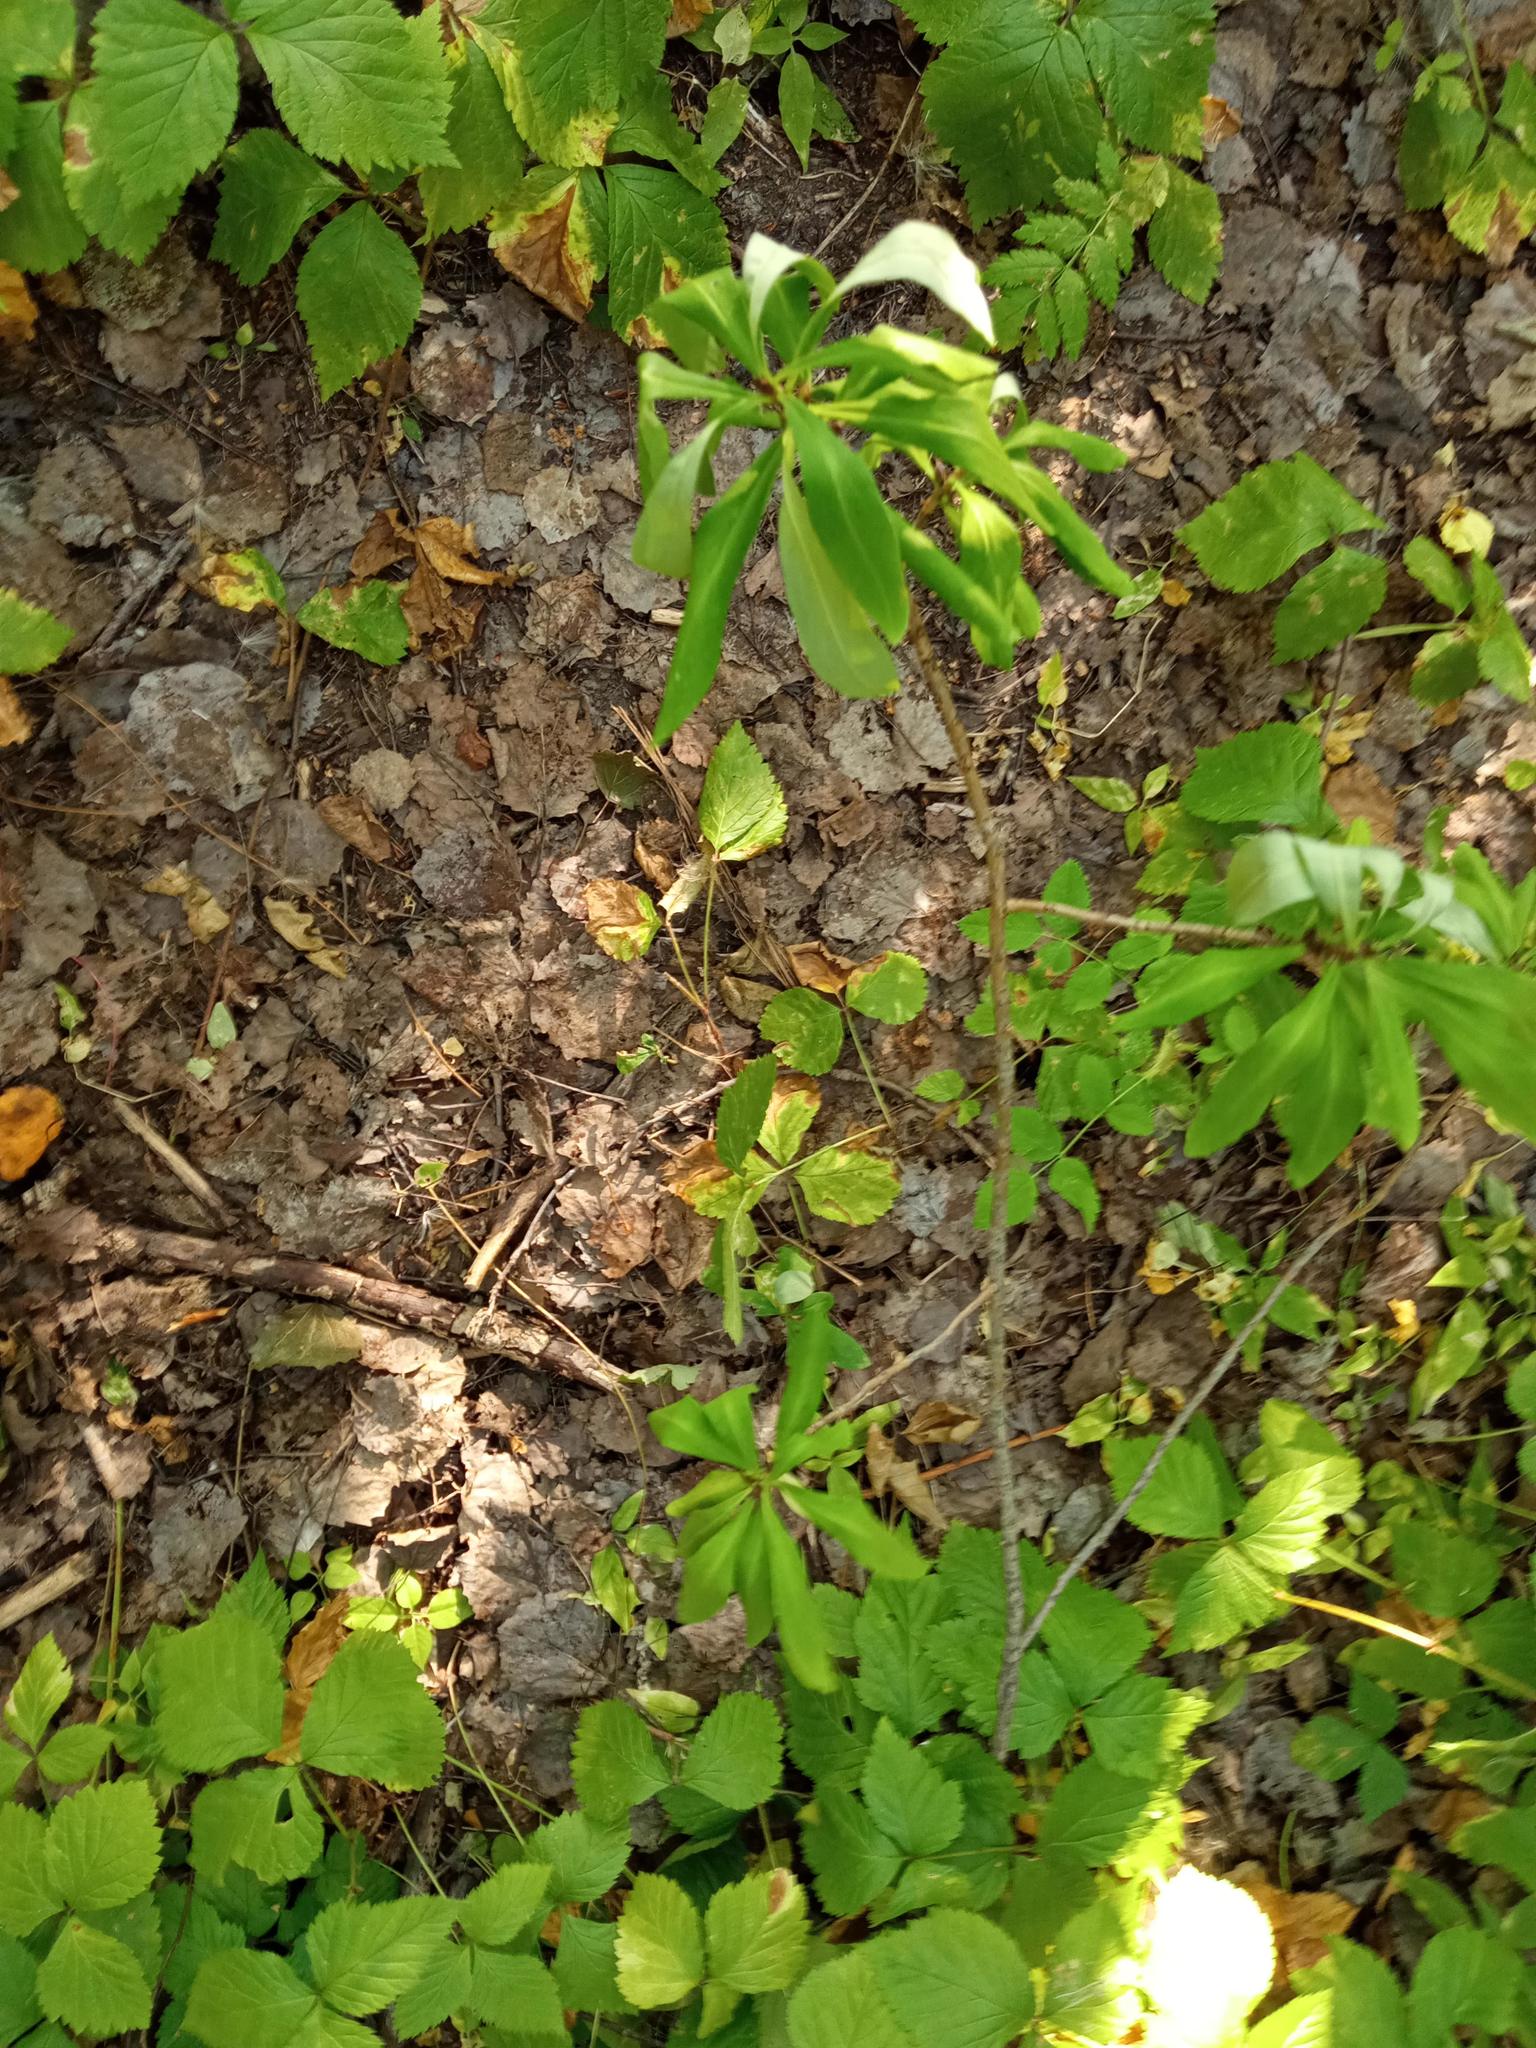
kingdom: Plantae
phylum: Tracheophyta
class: Magnoliopsida
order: Malvales
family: Thymelaeaceae
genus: Daphne
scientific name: Daphne mezereum
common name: Mezereon
